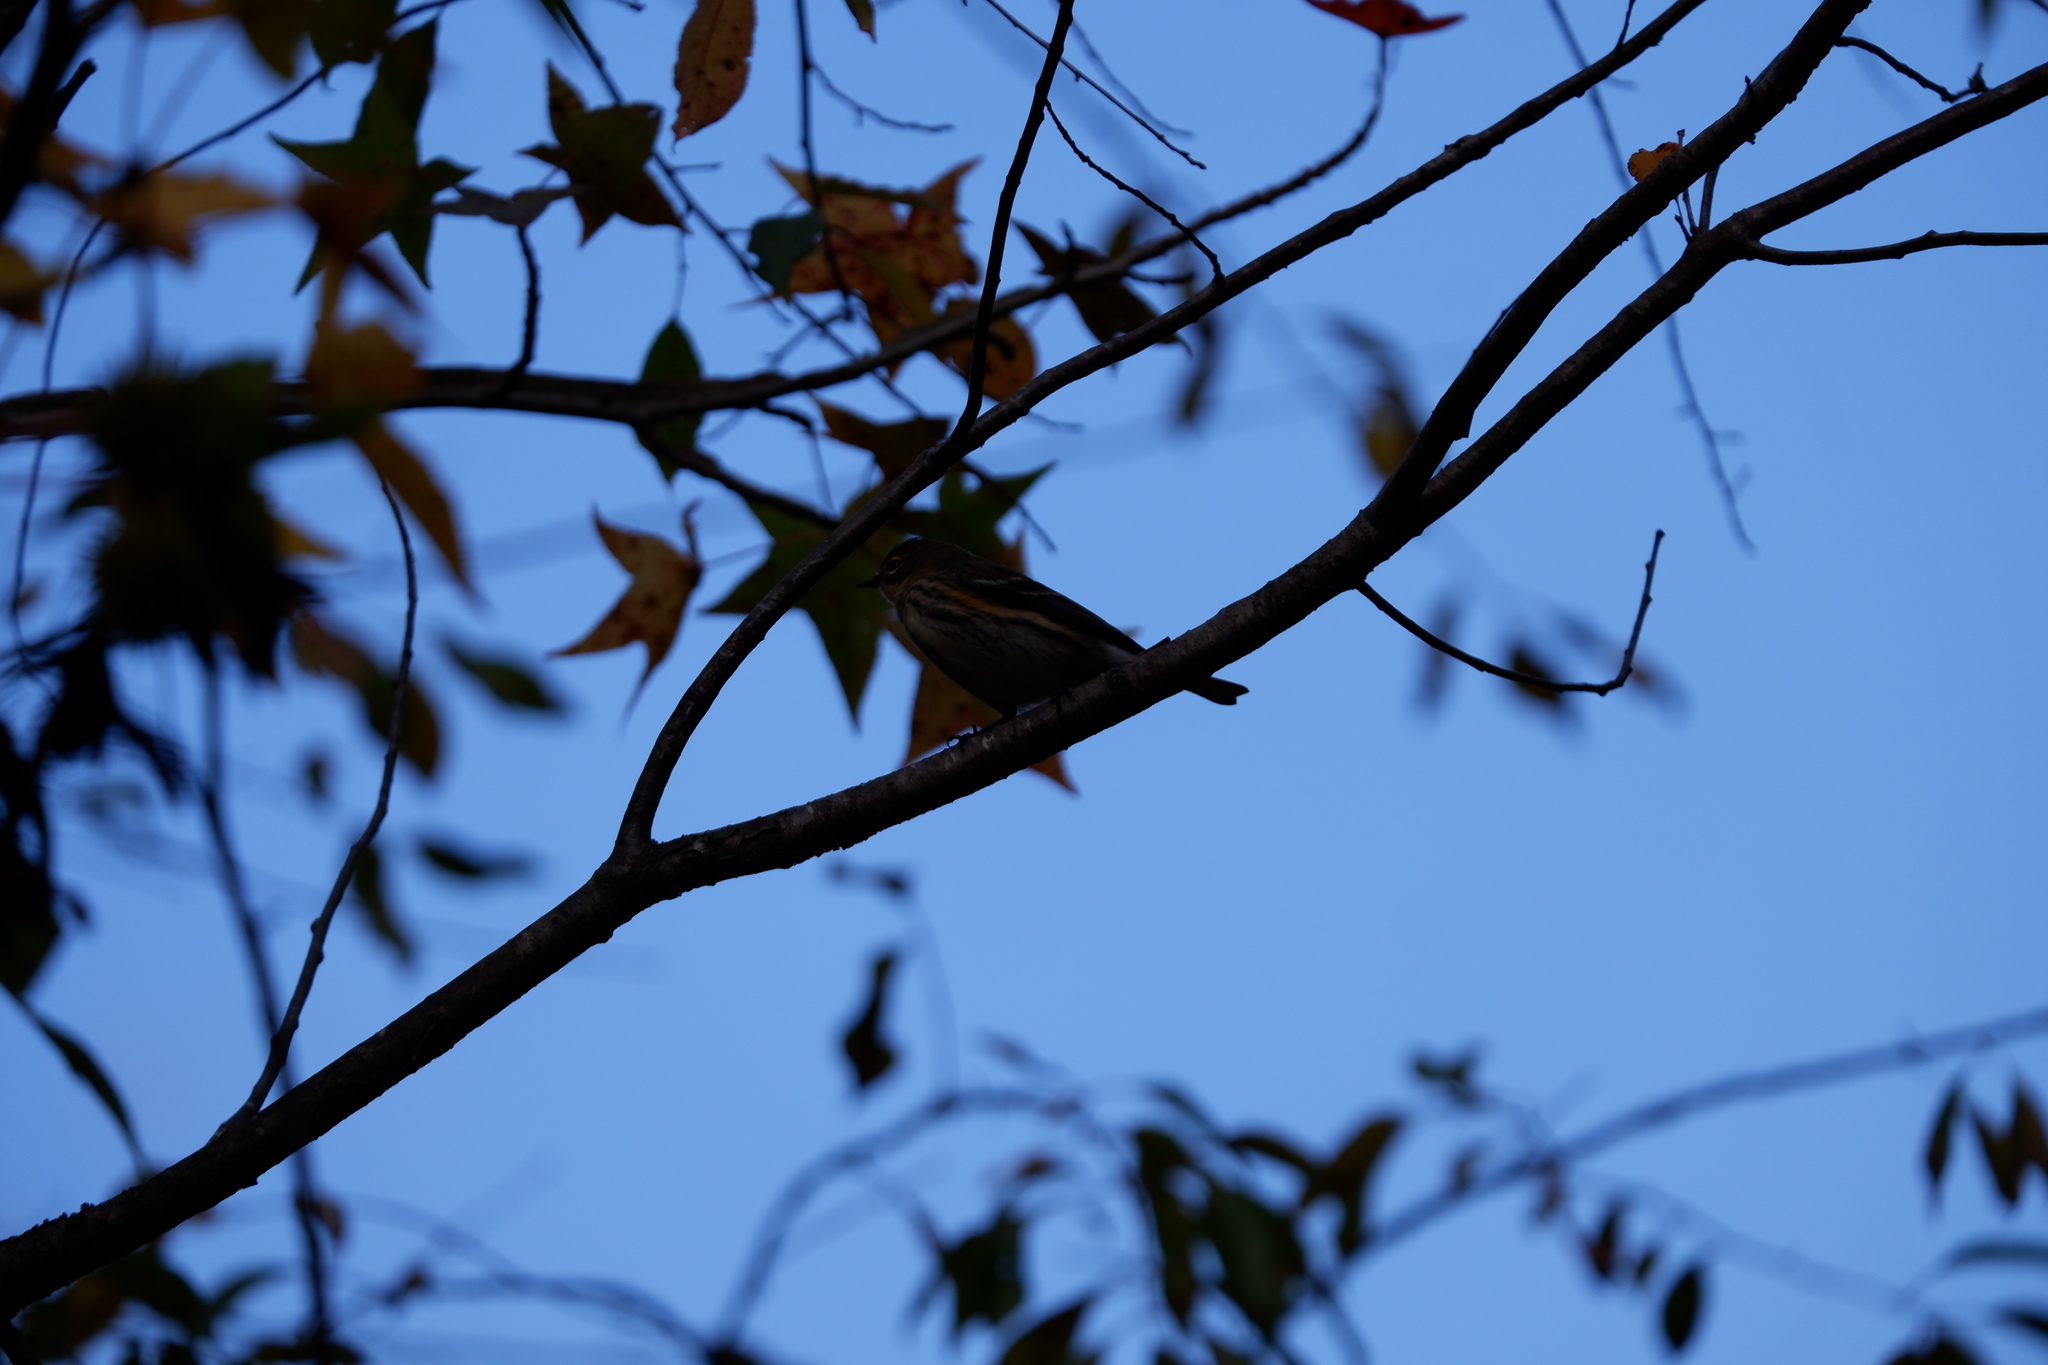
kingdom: Animalia
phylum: Chordata
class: Aves
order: Passeriformes
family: Parulidae
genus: Setophaga
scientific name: Setophaga coronata
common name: Myrtle warbler
